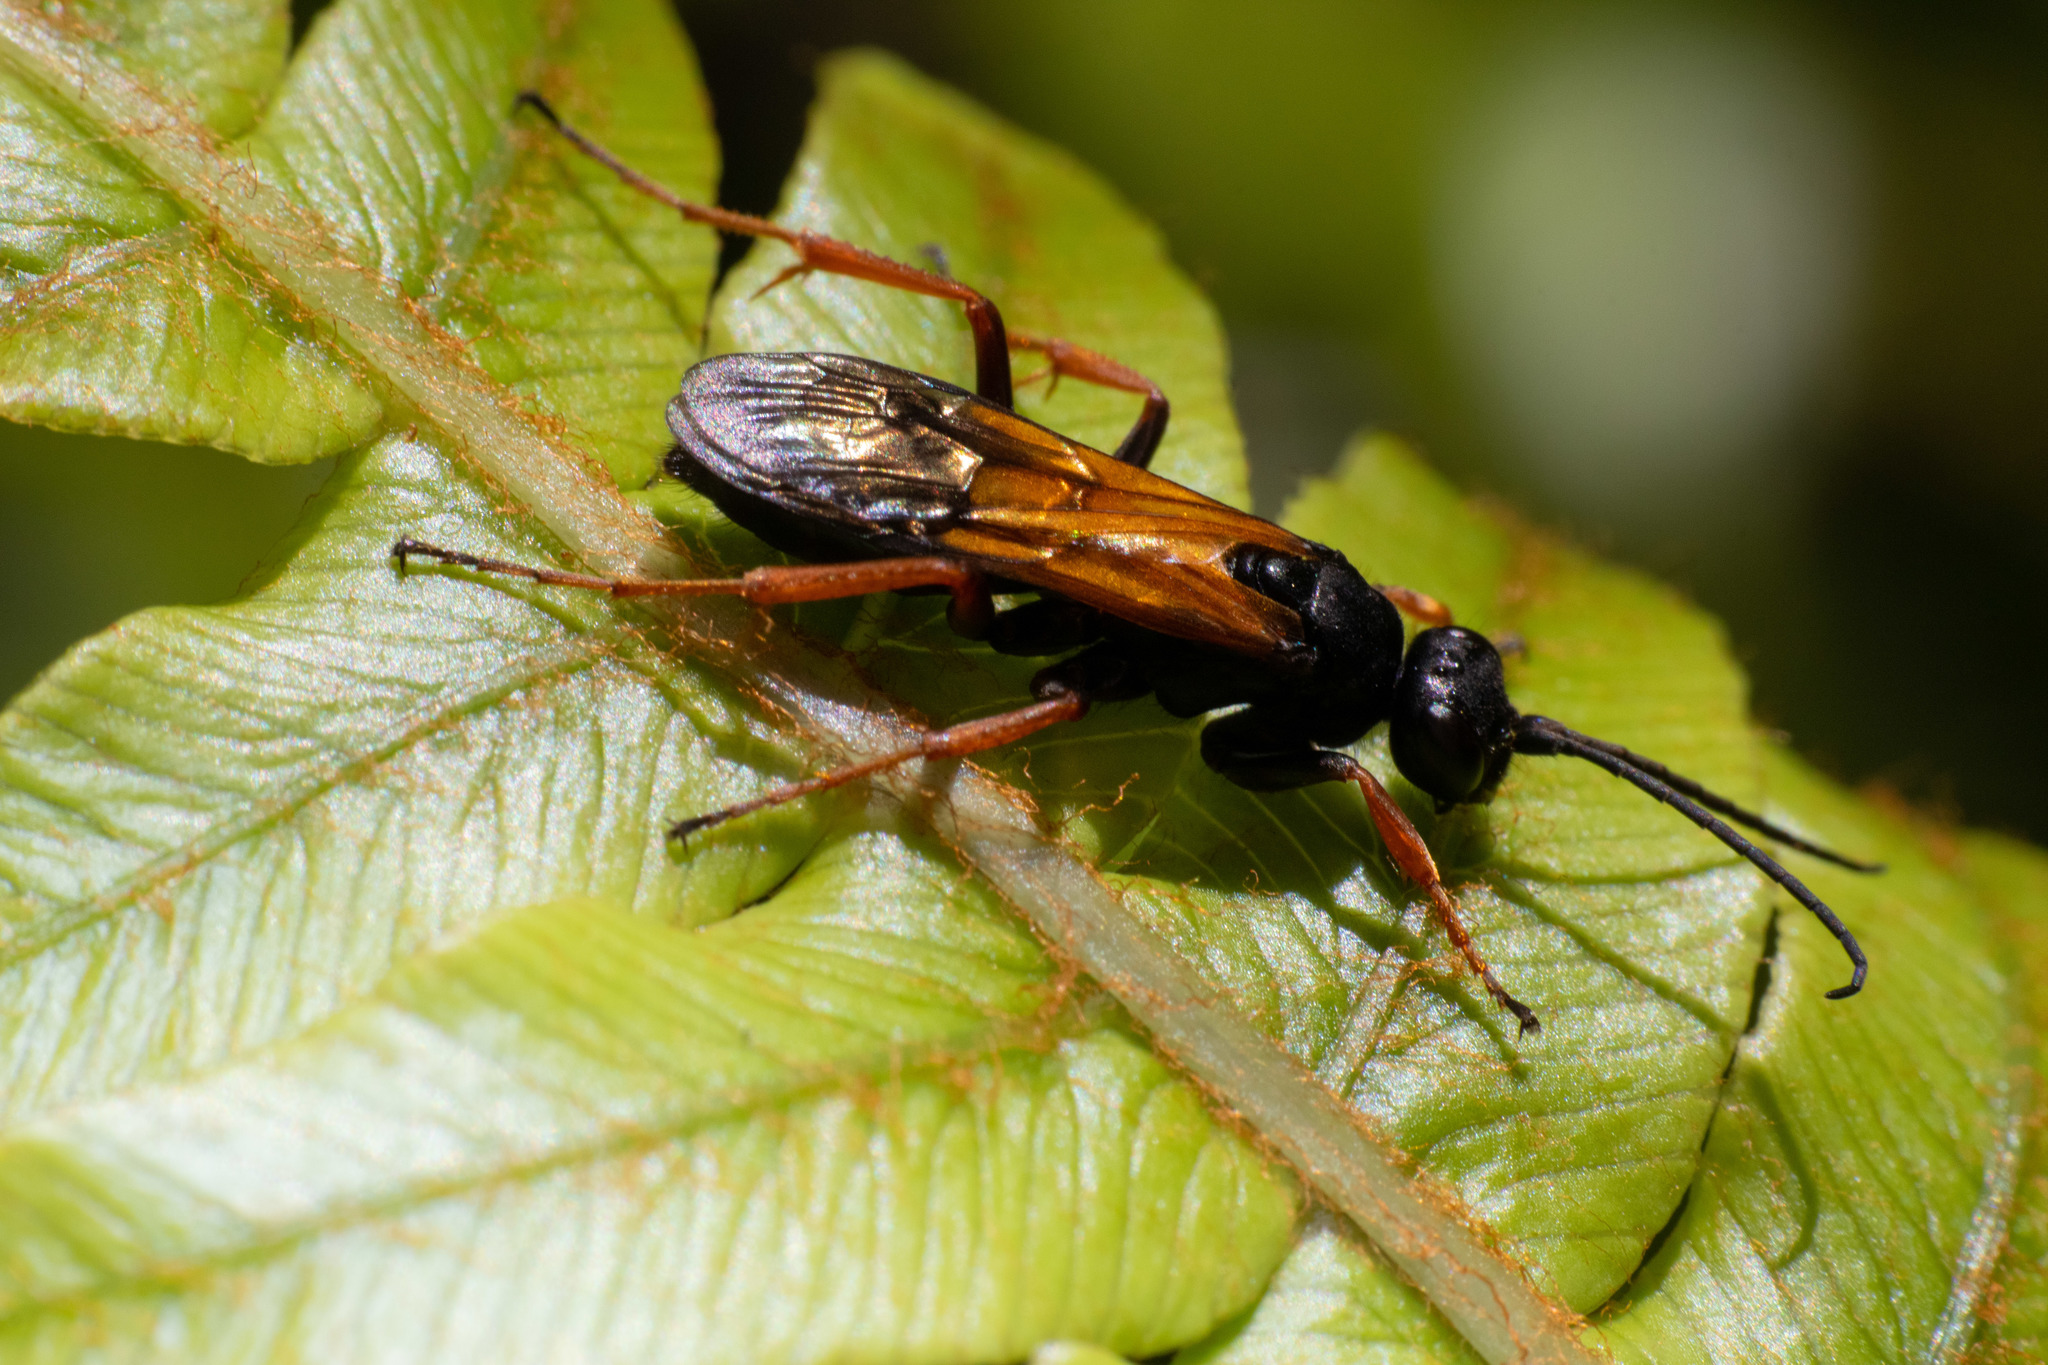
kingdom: Animalia
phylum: Arthropoda
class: Insecta
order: Hymenoptera
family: Pompilidae
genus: Priocnemis
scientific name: Priocnemis conformis
